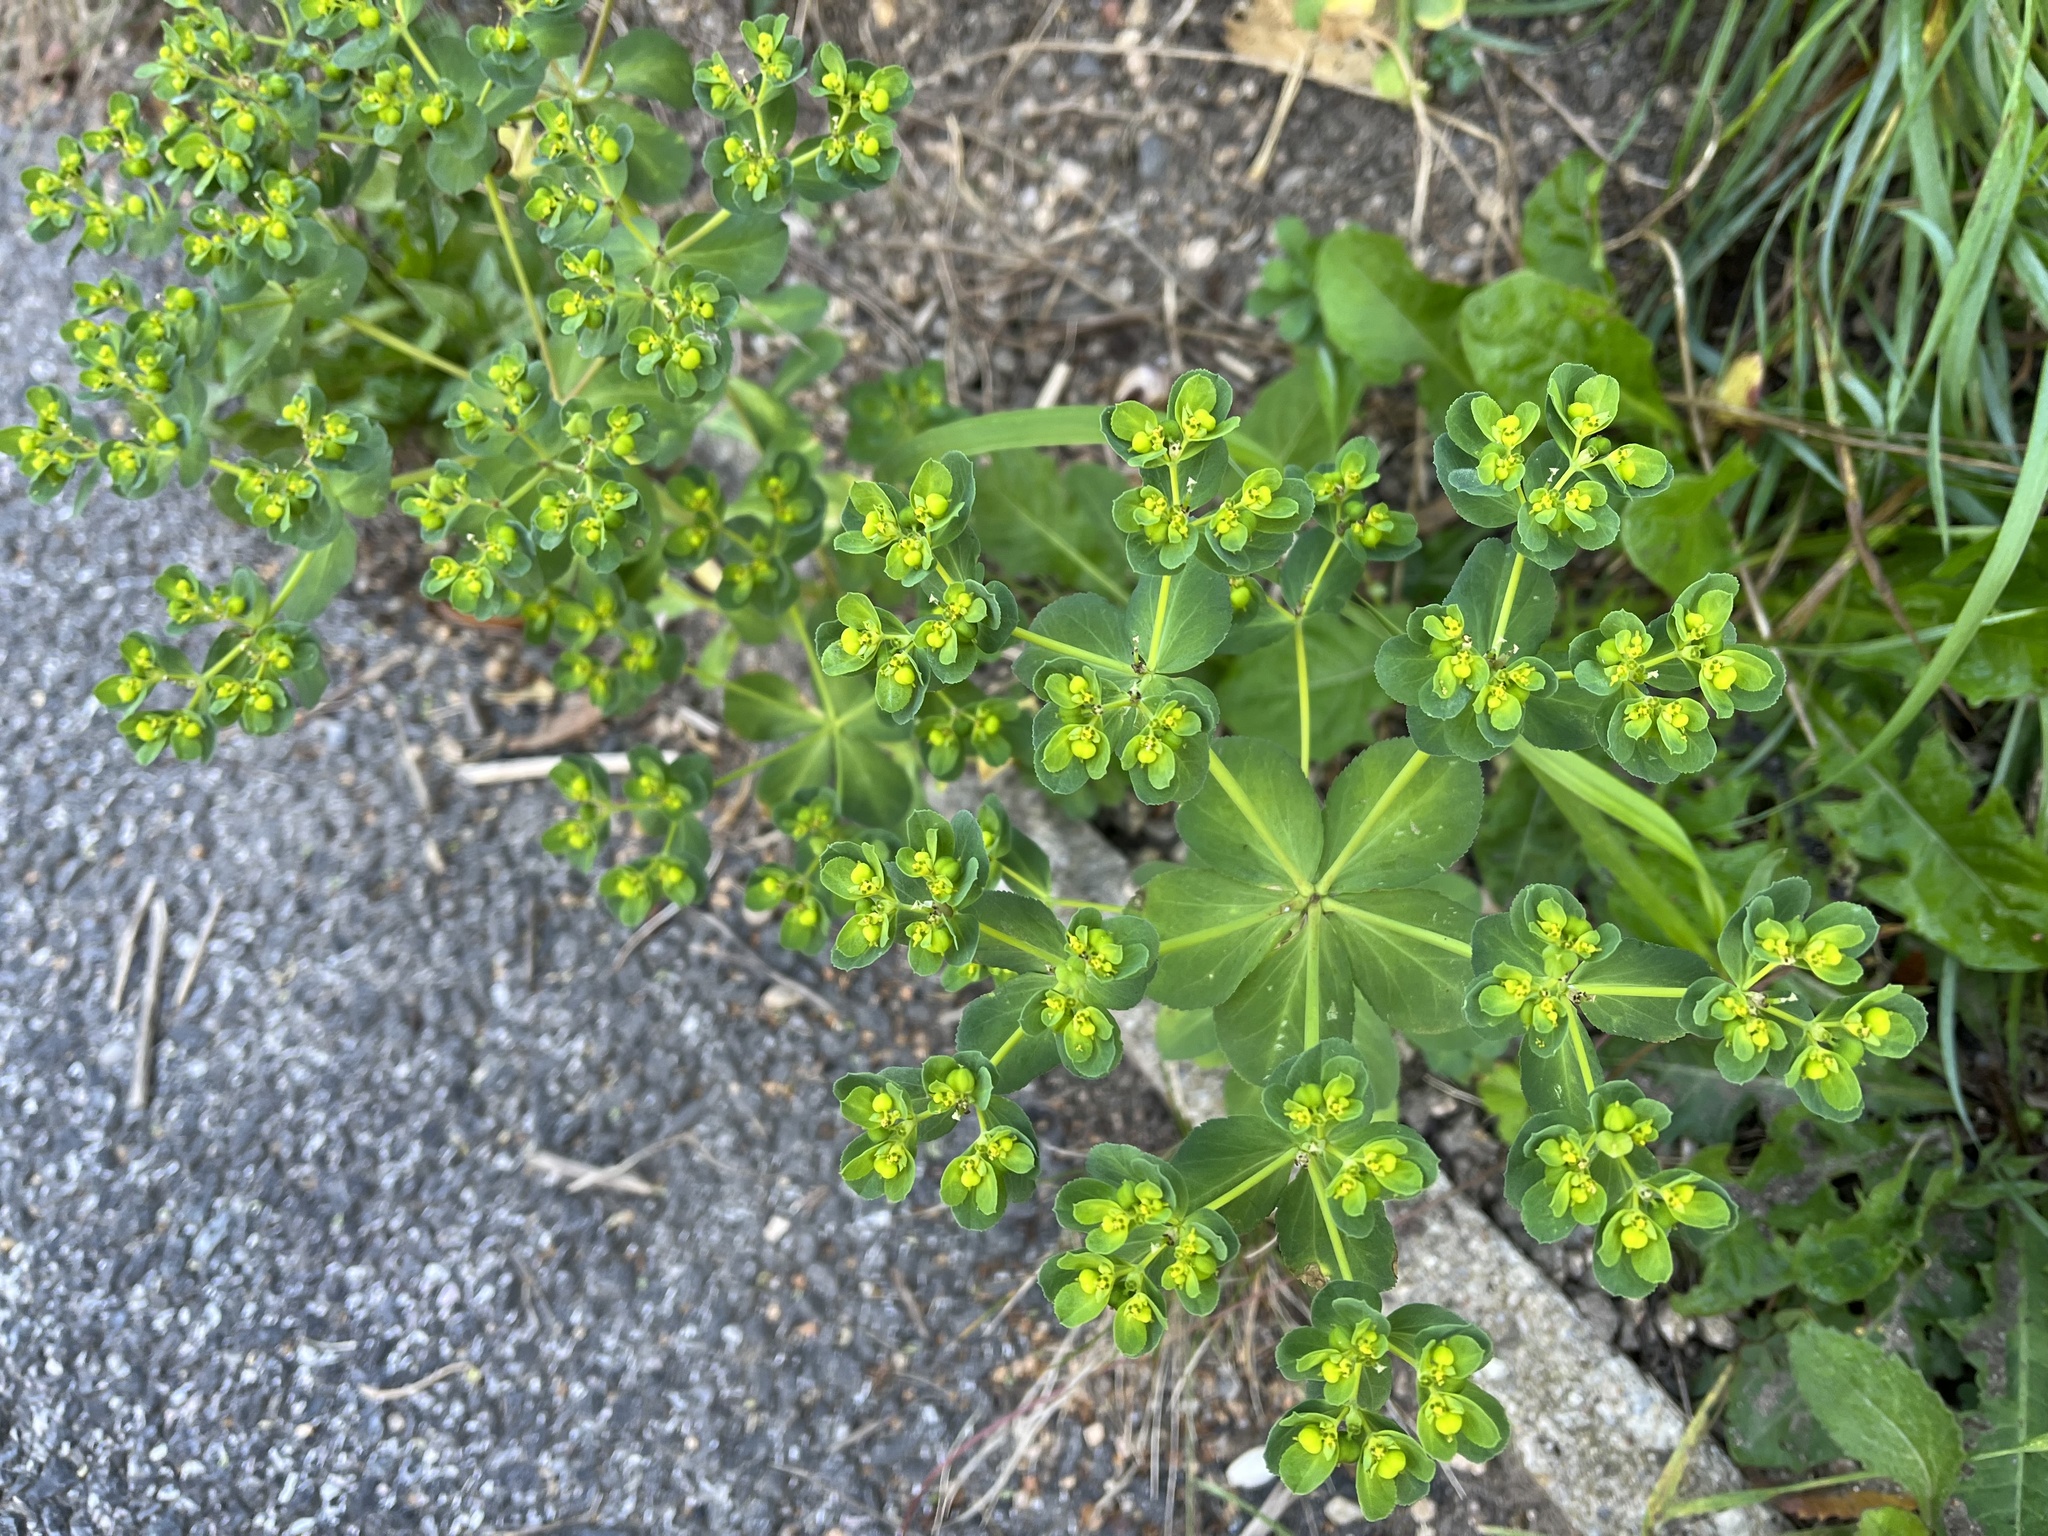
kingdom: Plantae
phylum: Tracheophyta
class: Magnoliopsida
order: Malpighiales
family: Euphorbiaceae
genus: Euphorbia
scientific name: Euphorbia helioscopia
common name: Sun spurge
